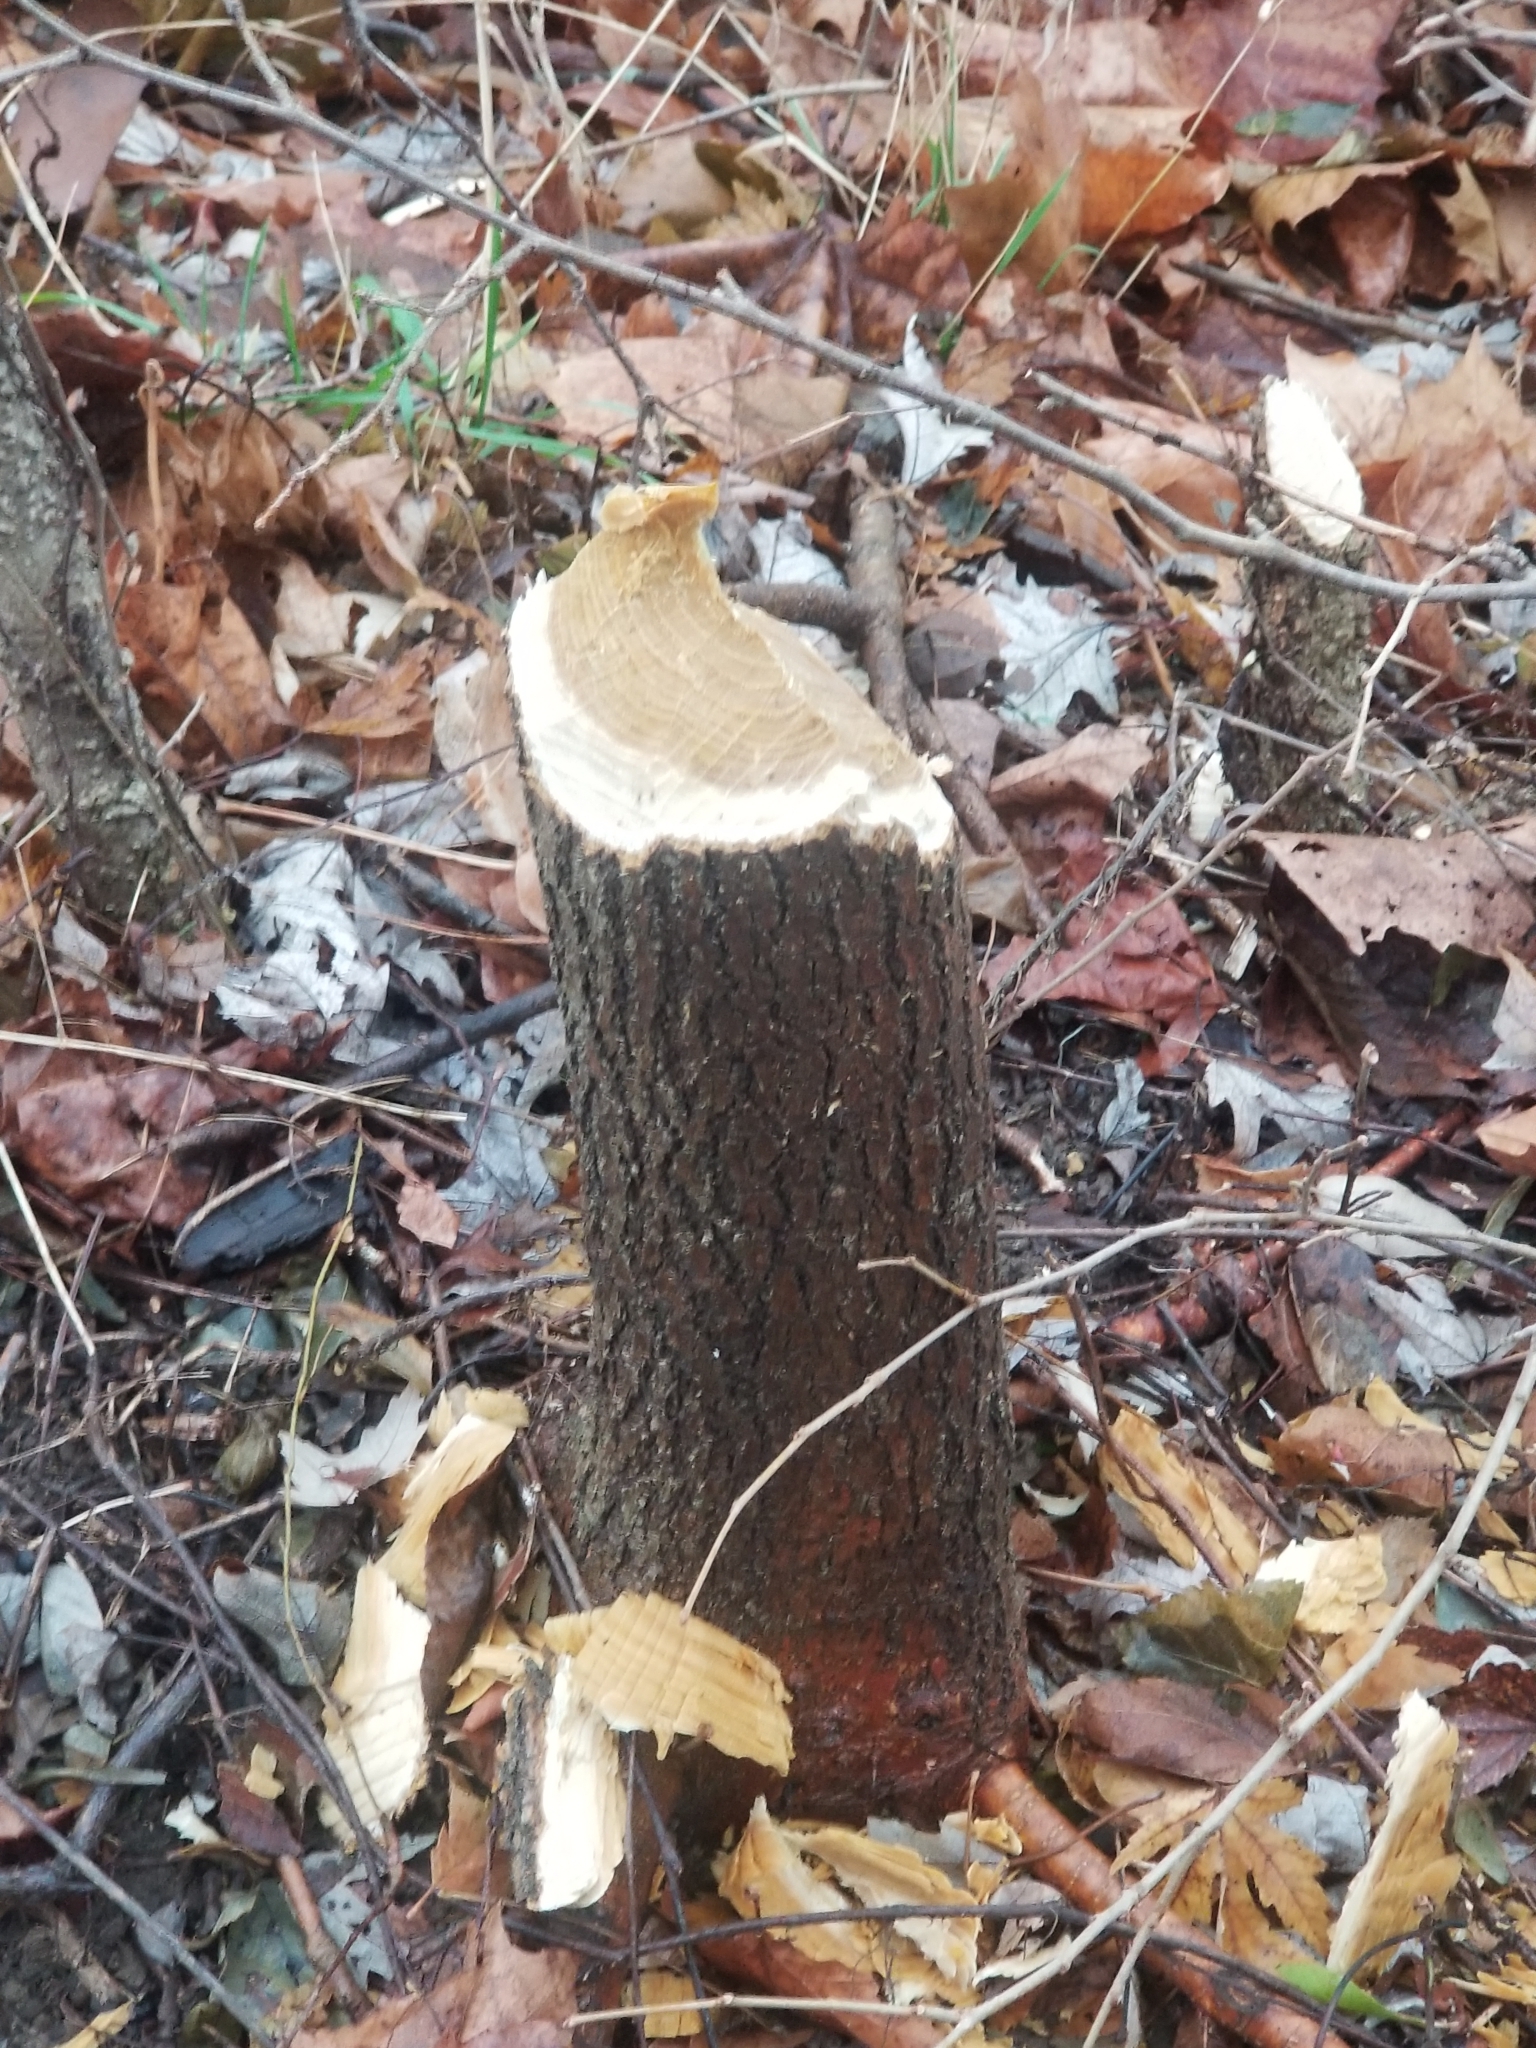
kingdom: Animalia
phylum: Chordata
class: Mammalia
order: Rodentia
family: Castoridae
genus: Castor
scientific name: Castor canadensis
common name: American beaver
